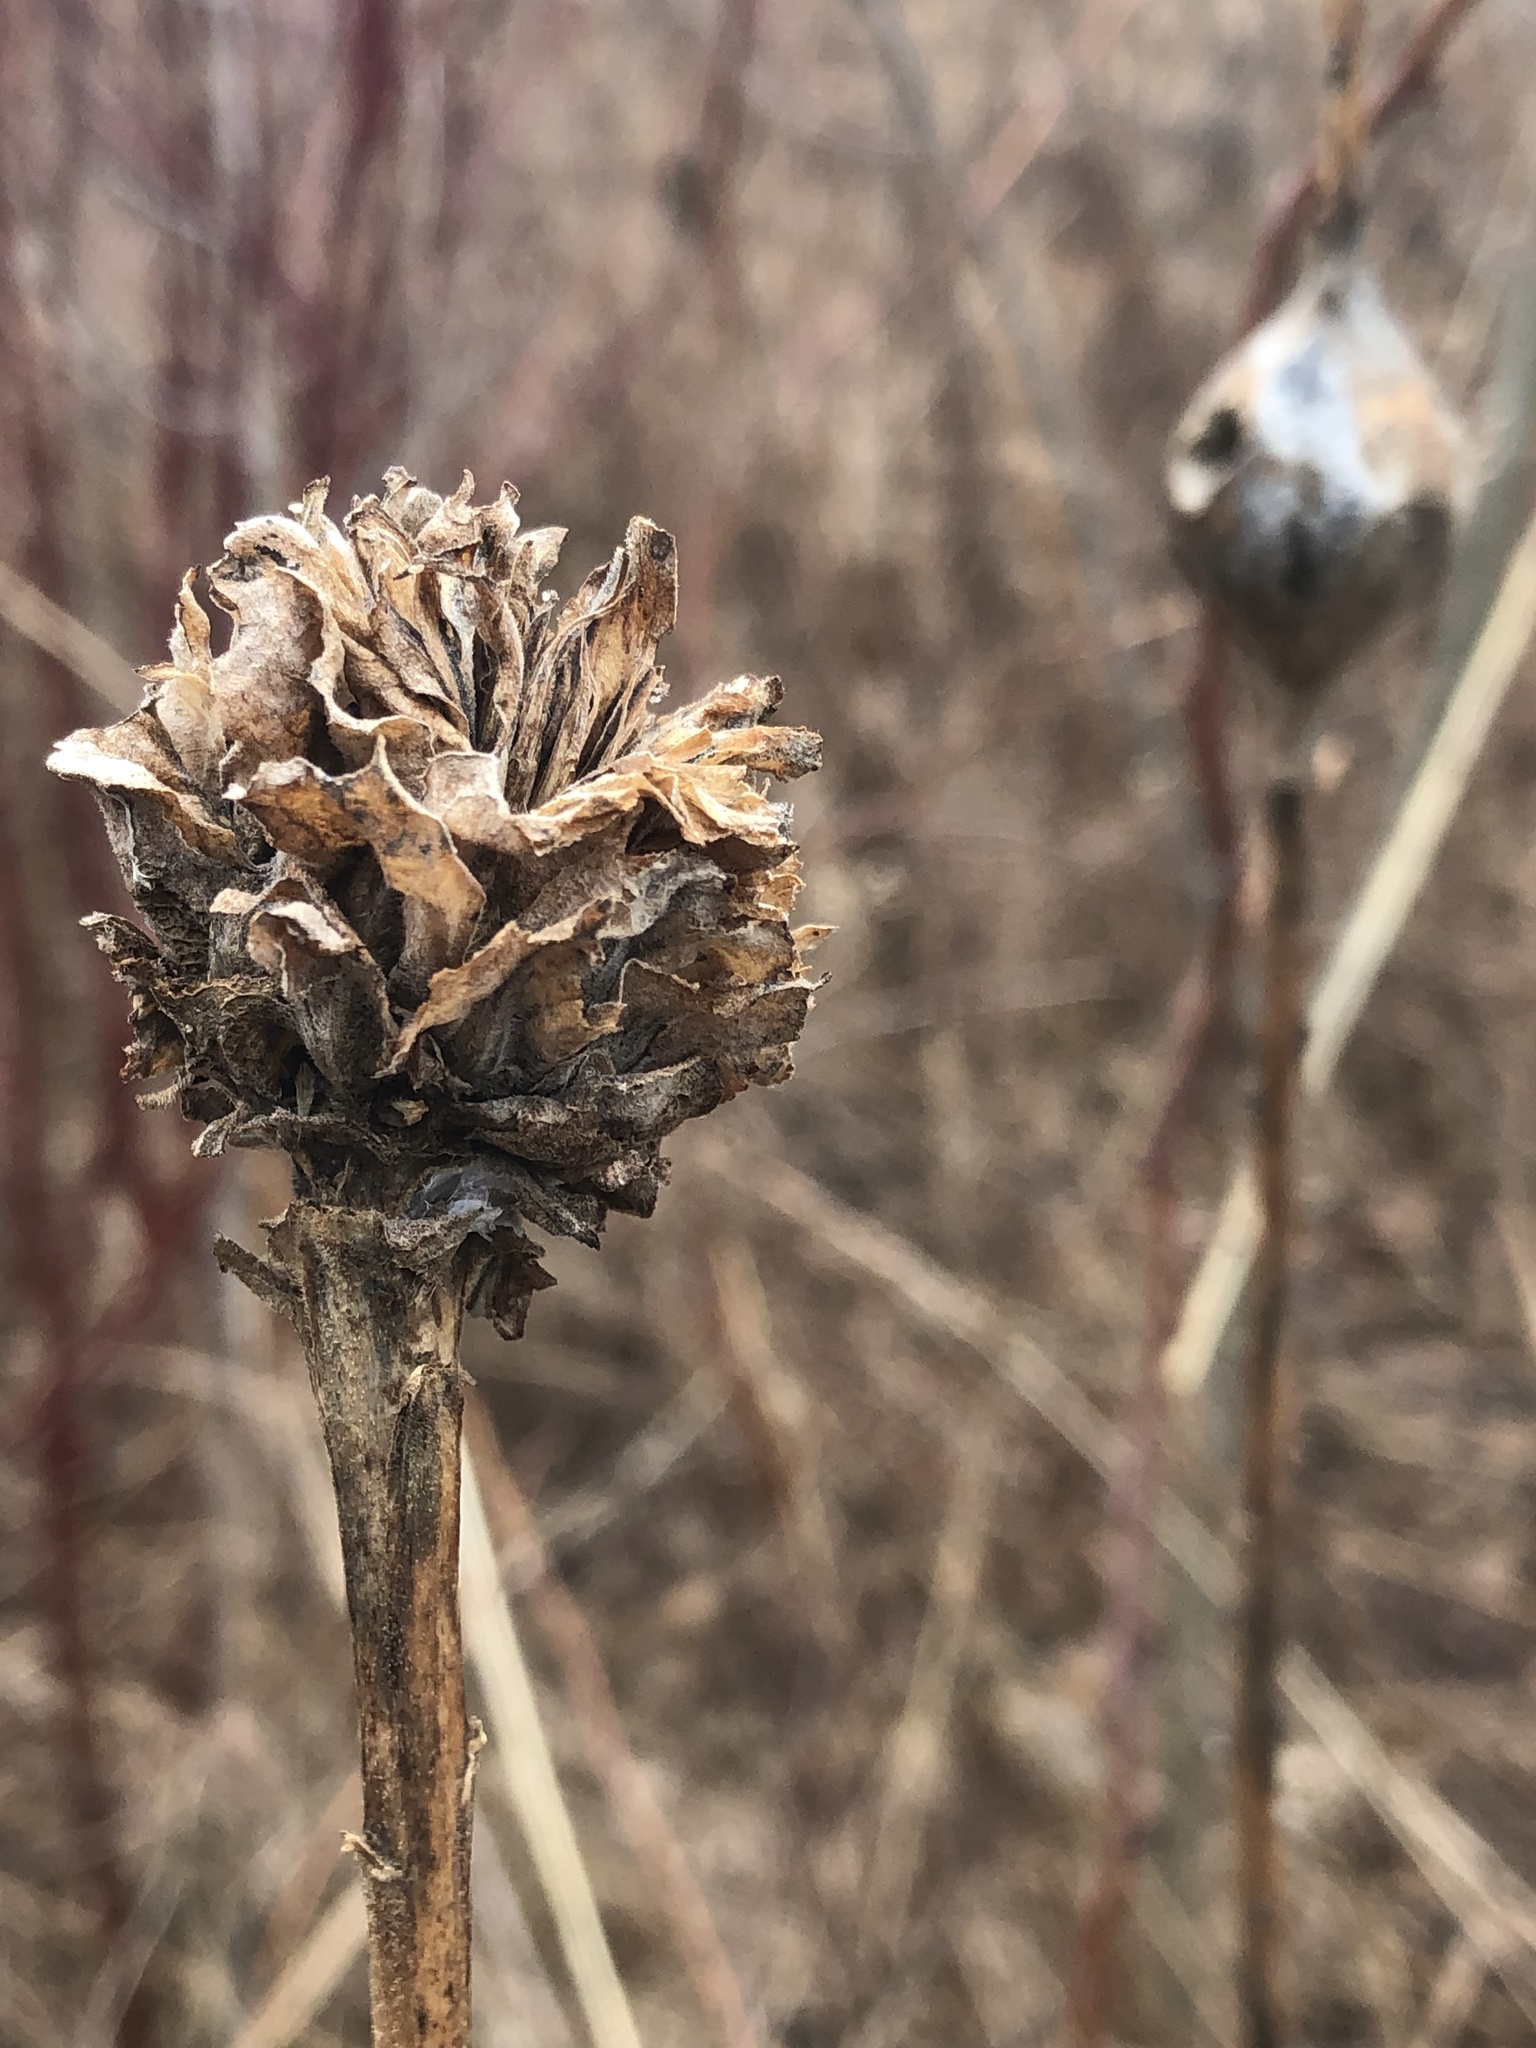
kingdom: Animalia
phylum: Arthropoda
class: Insecta
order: Diptera
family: Cecidomyiidae
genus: Rhopalomyia
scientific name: Rhopalomyia solidaginis
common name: Goldenrod bunch gall midge
